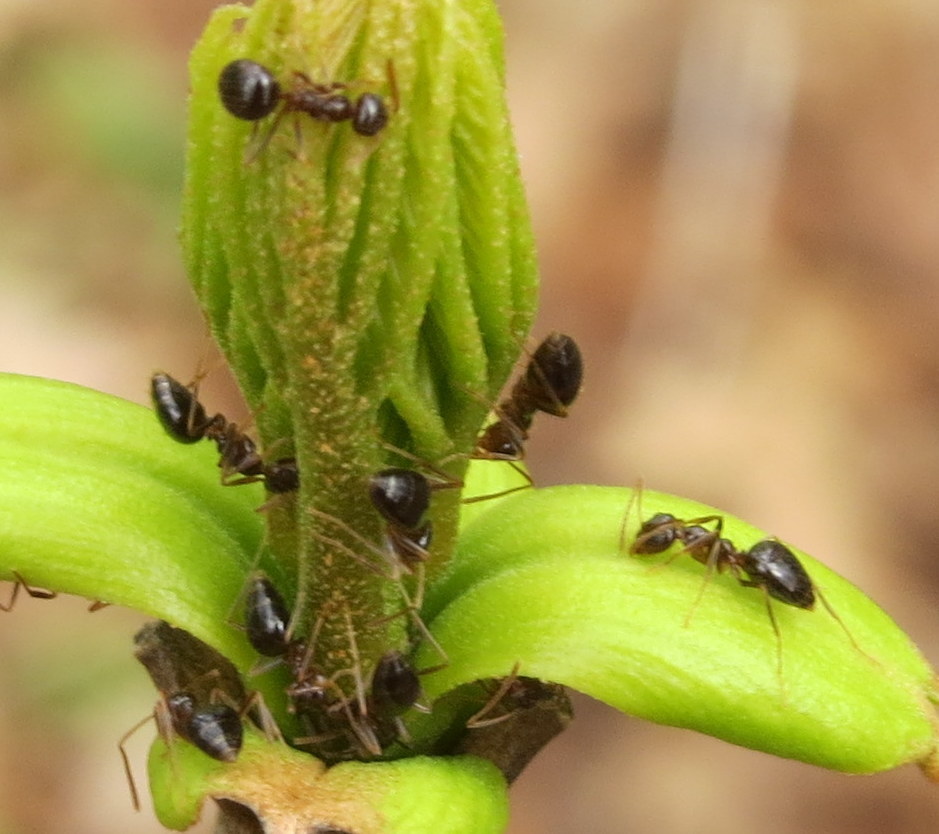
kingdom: Animalia
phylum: Arthropoda
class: Insecta
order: Hymenoptera
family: Formicidae
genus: Prenolepis
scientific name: Prenolepis imparis
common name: Small honey ant
